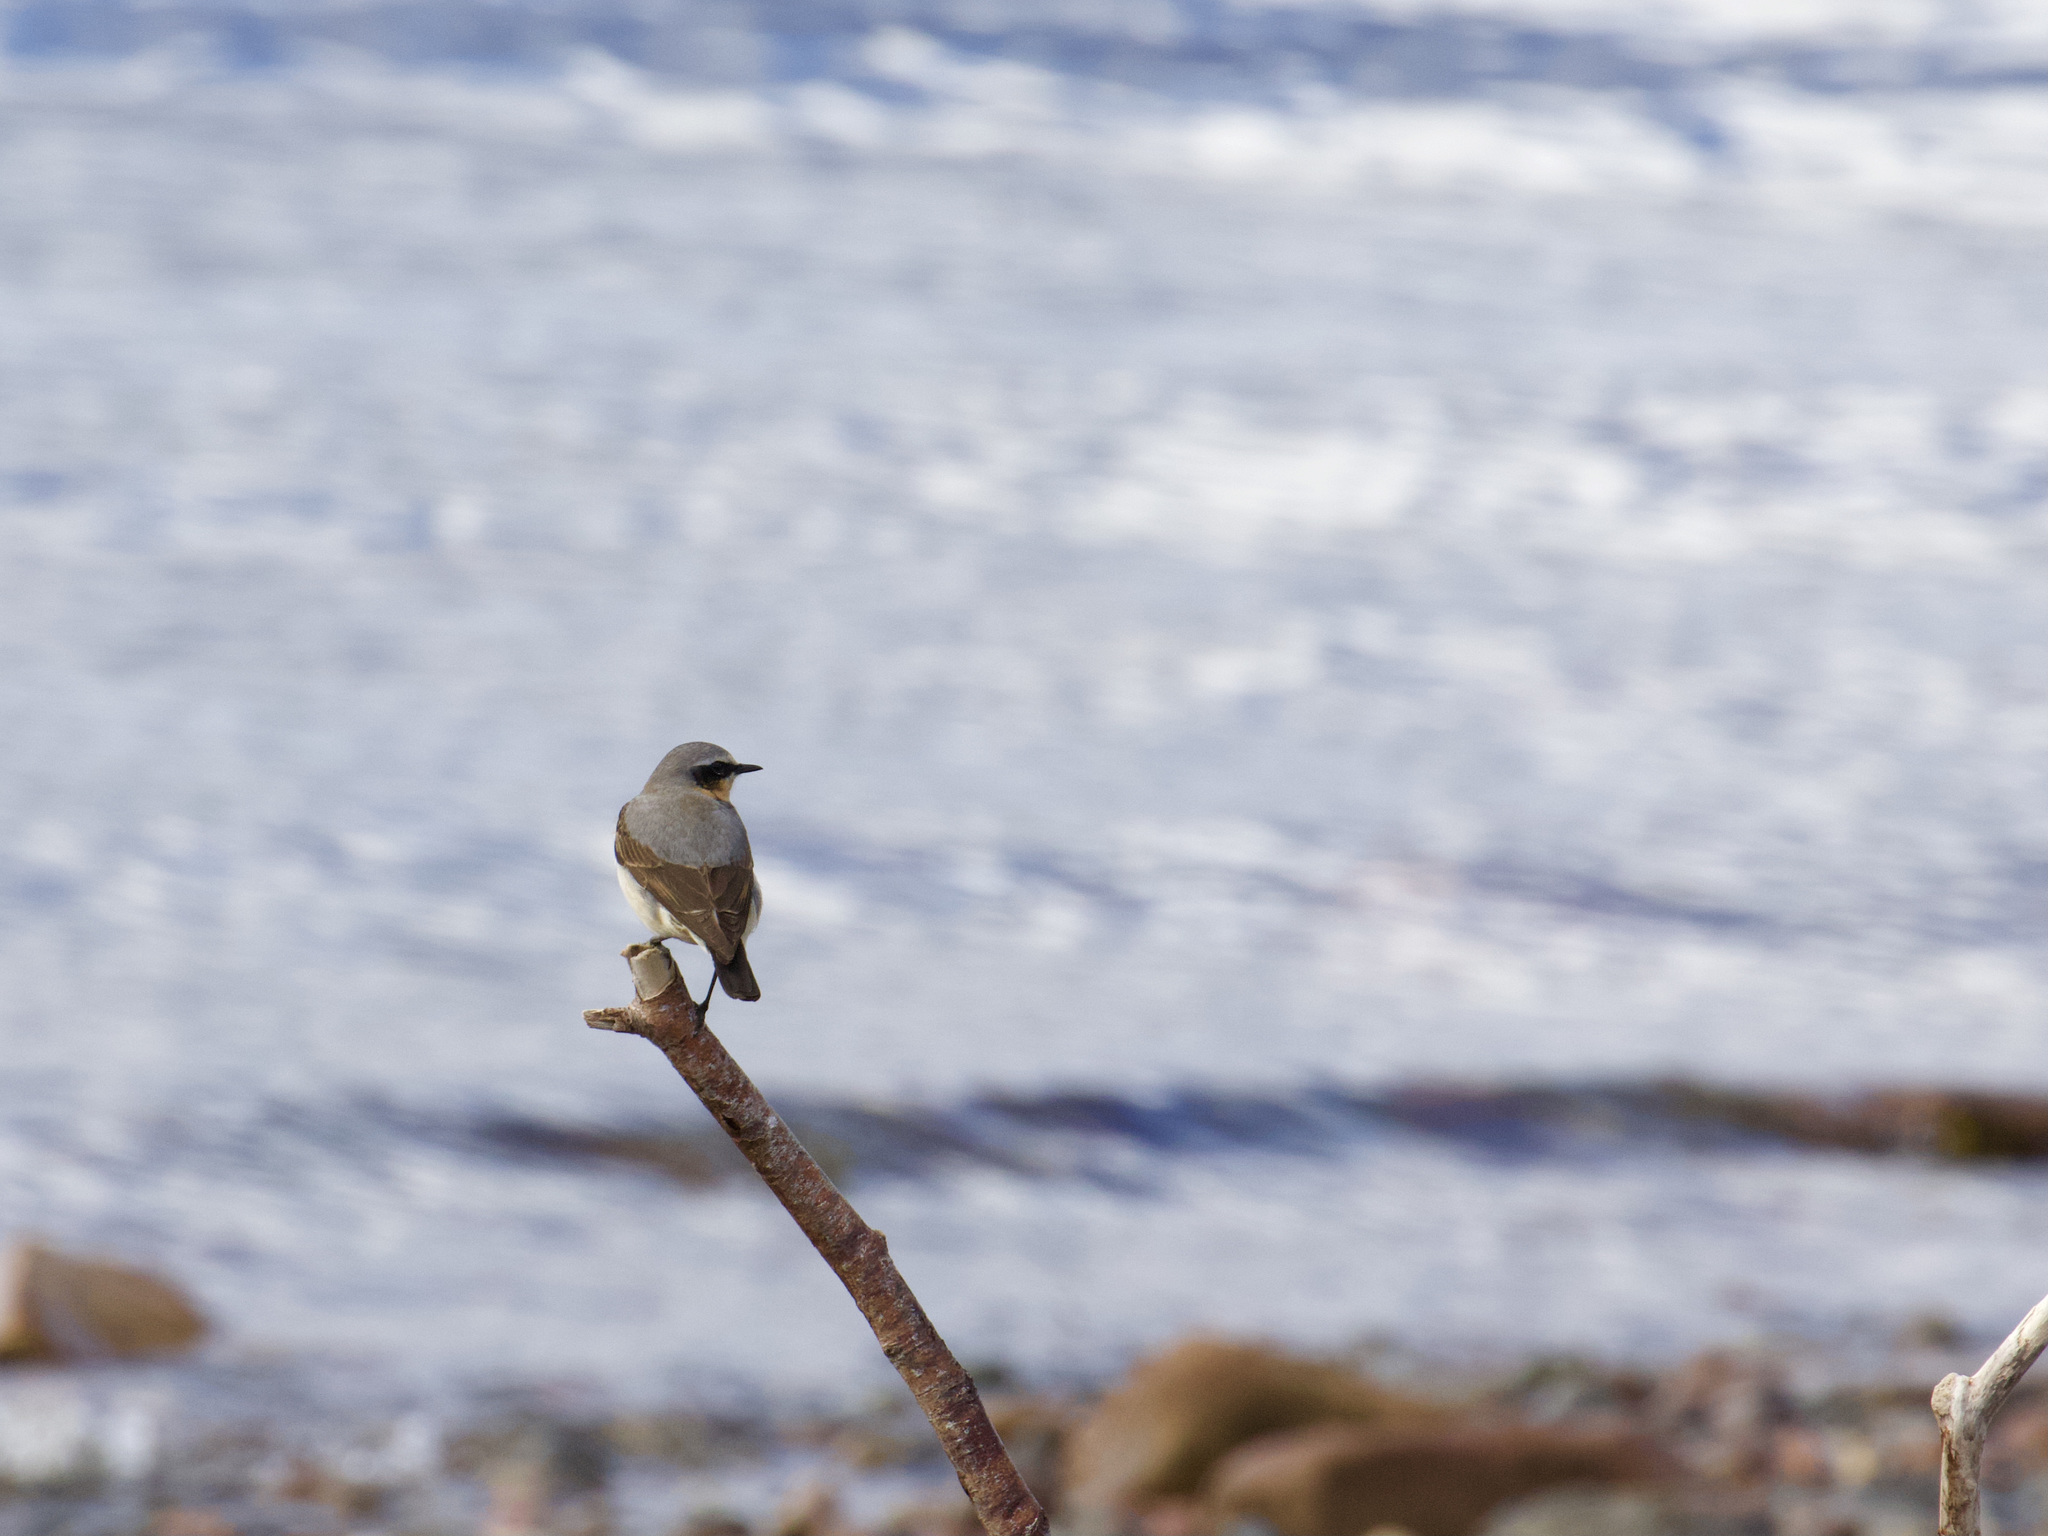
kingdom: Animalia
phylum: Chordata
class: Aves
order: Passeriformes
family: Muscicapidae
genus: Oenanthe
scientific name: Oenanthe oenanthe
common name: Northern wheatear
